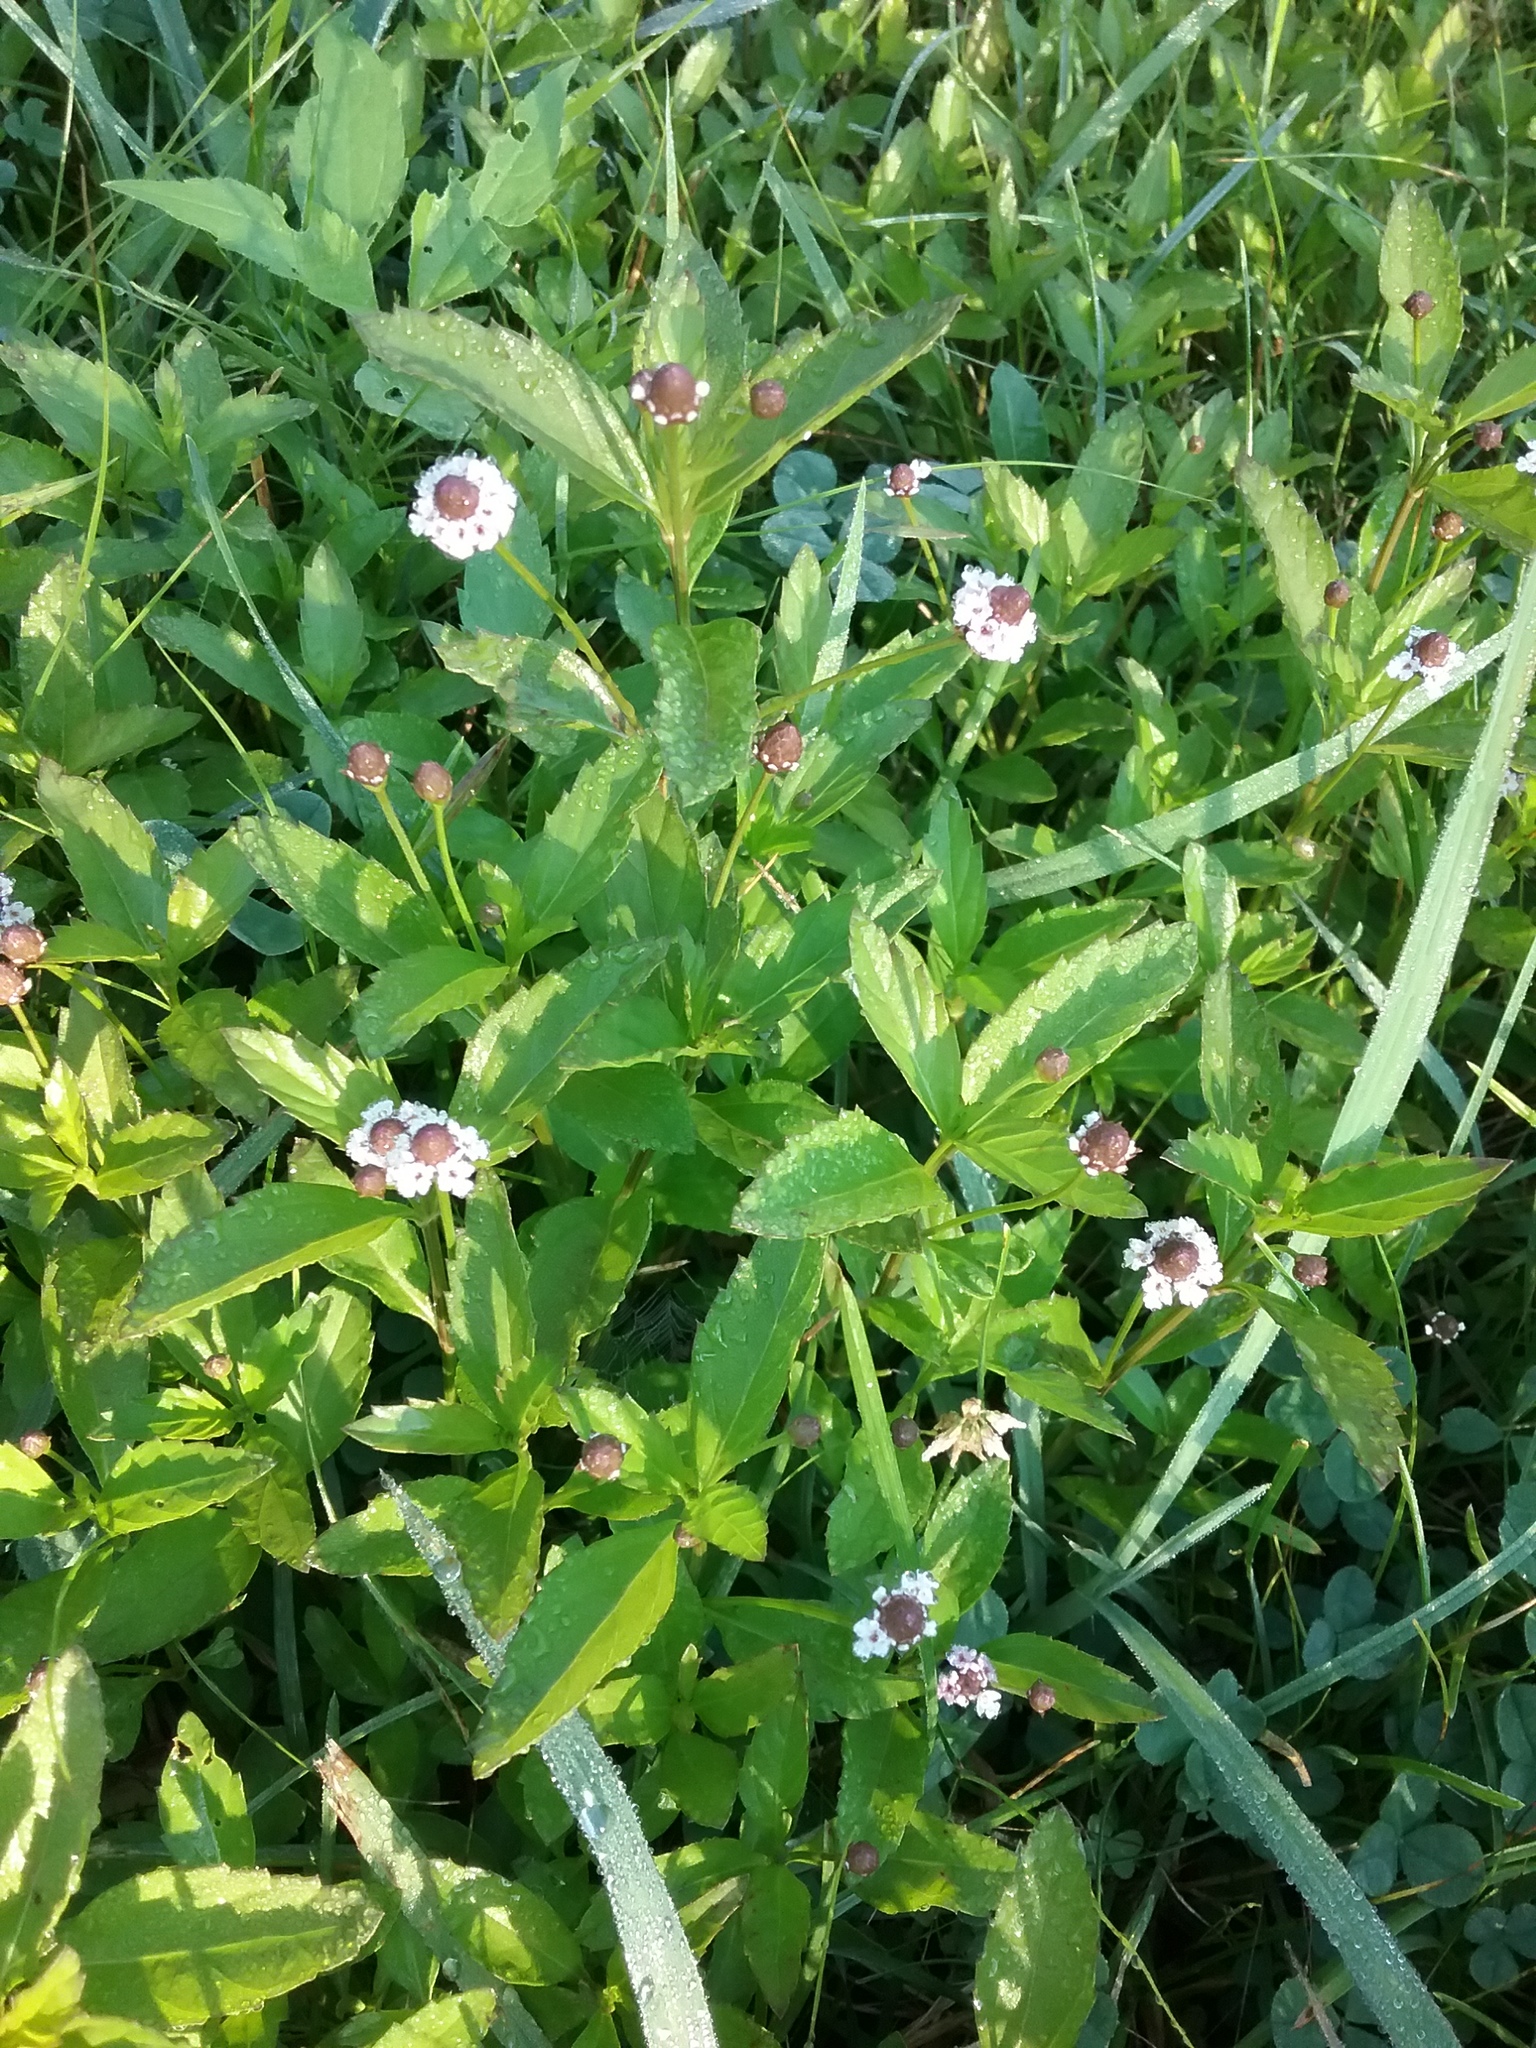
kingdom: Plantae
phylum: Tracheophyta
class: Magnoliopsida
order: Lamiales
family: Verbenaceae
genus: Phyla
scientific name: Phyla lanceolata
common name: Northern fogfruit
